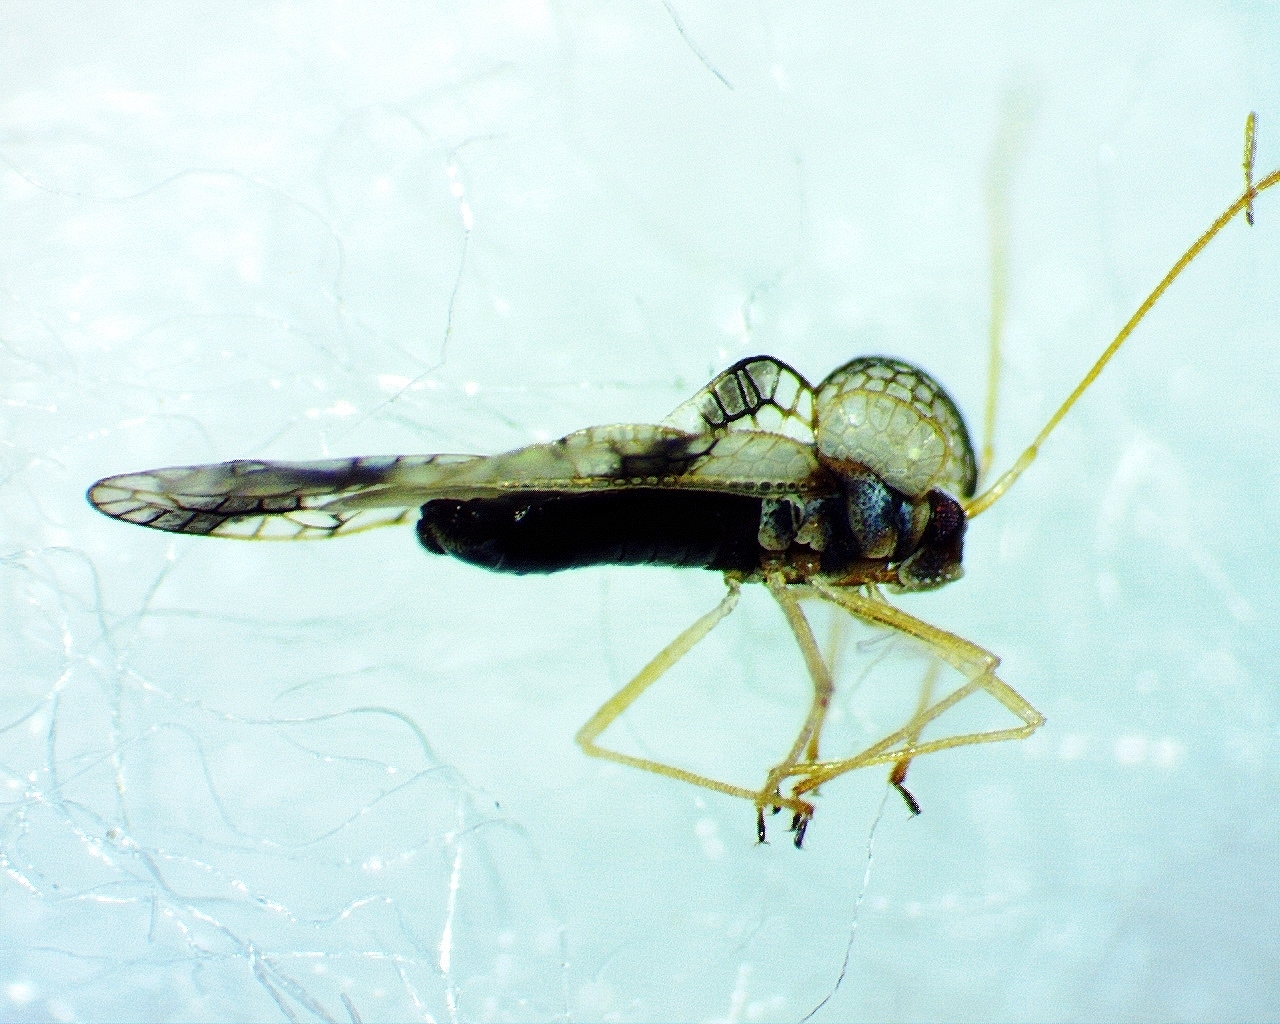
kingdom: Animalia
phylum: Arthropoda
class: Insecta
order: Hemiptera
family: Tingidae
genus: Stephanitis
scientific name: Stephanitis pyrioides
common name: Azalea lace bug
